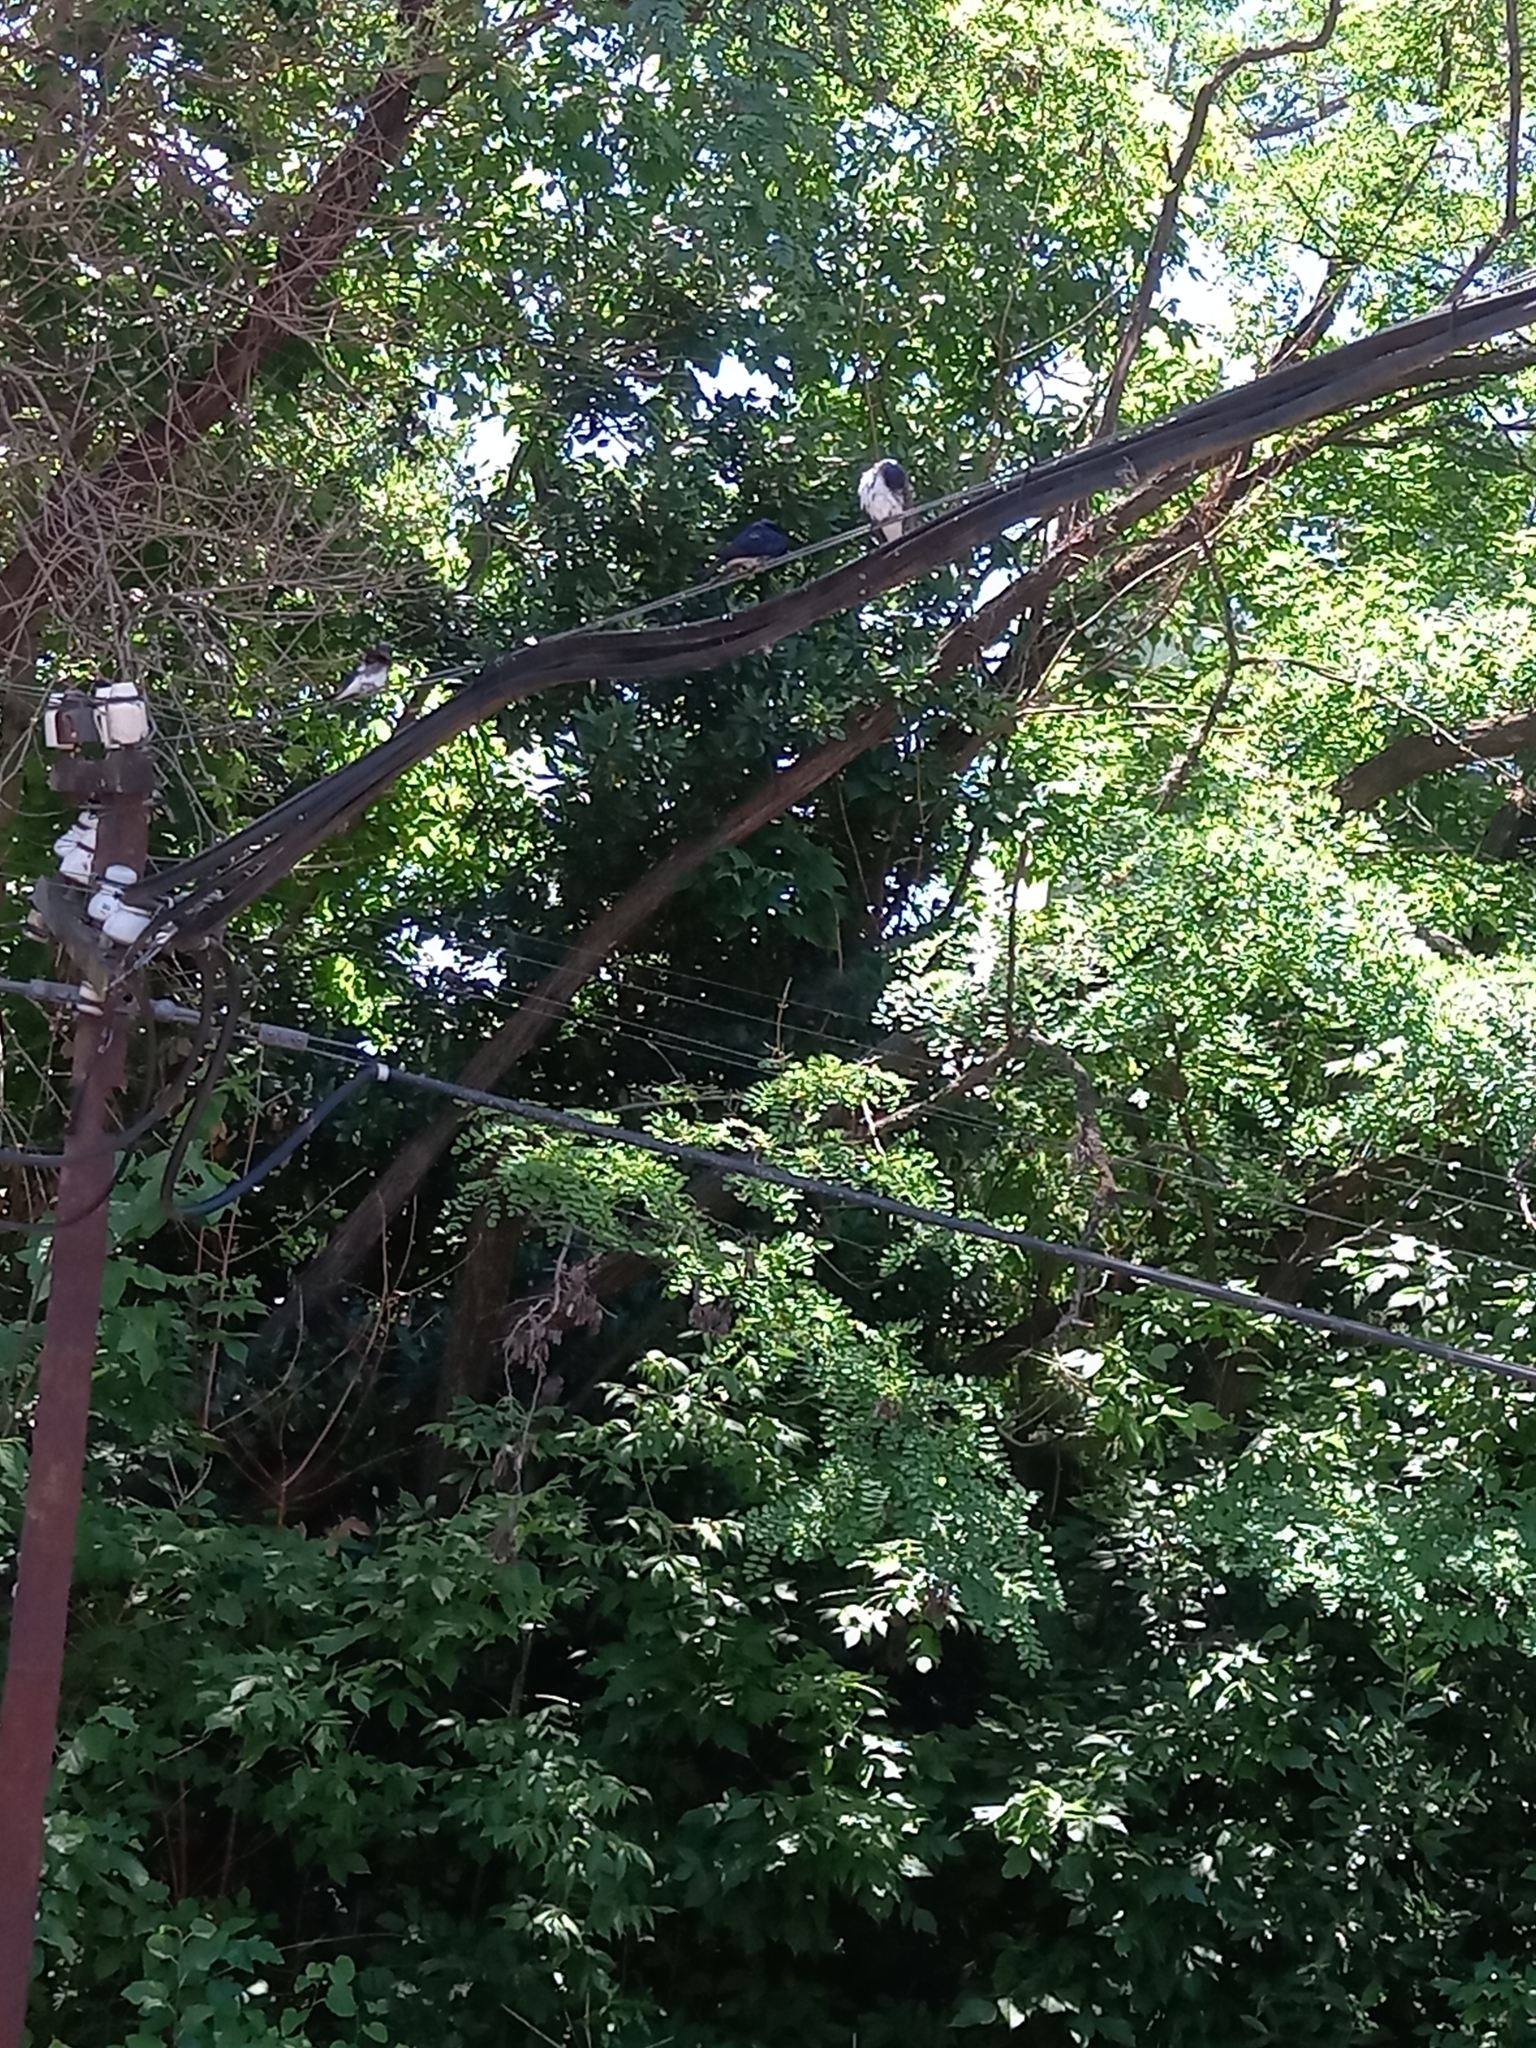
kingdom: Animalia
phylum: Chordata
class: Aves
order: Passeriformes
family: Hirundinidae
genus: Progne
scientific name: Progne chalybea
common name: Grey-breasted martin
